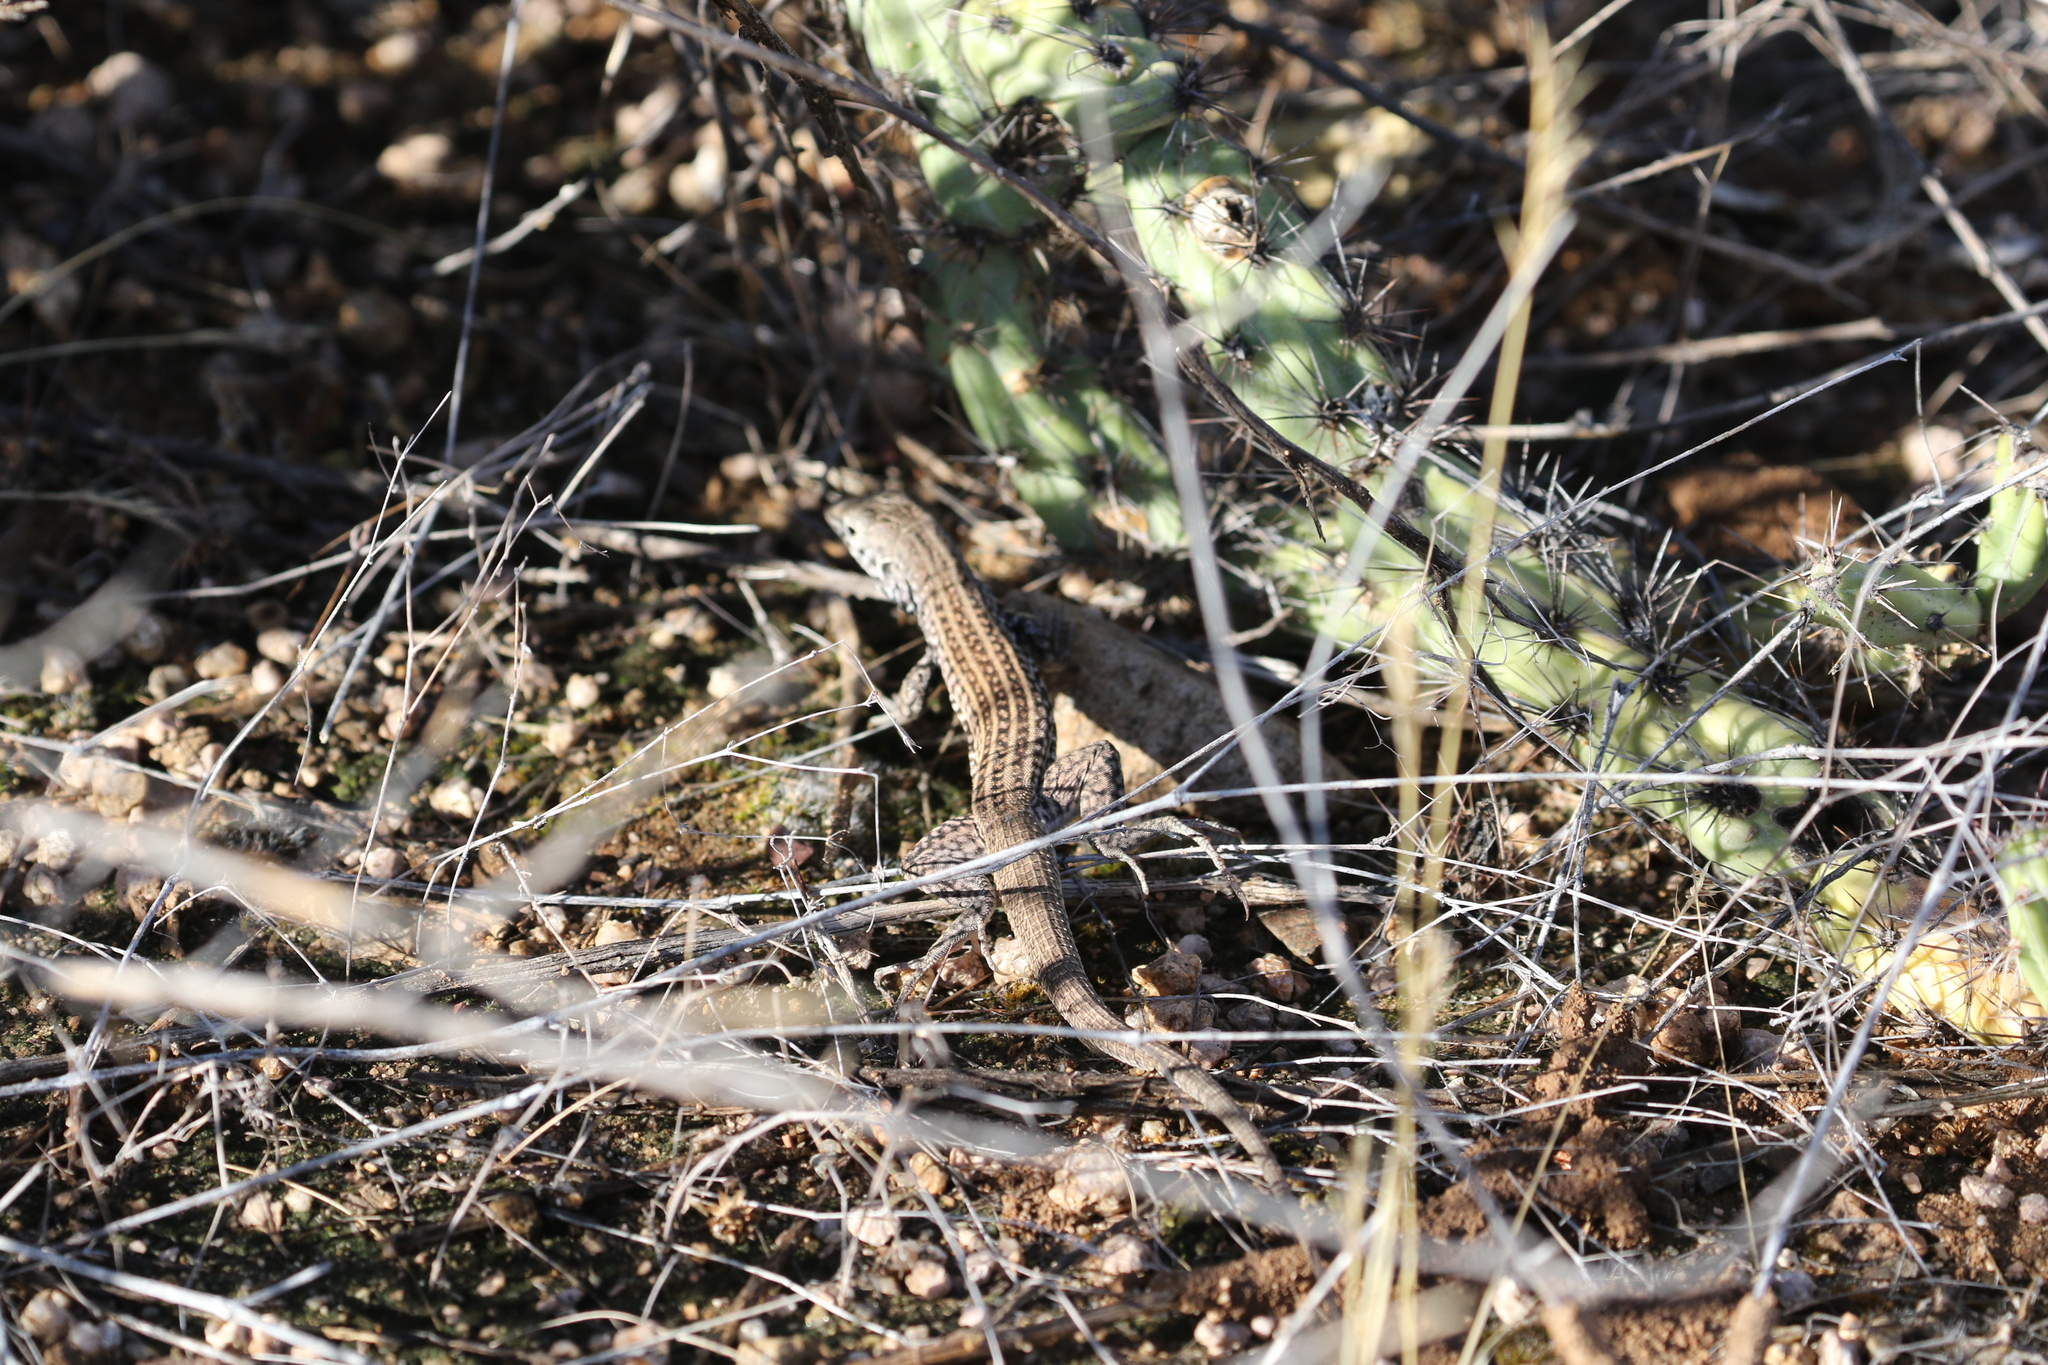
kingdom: Animalia
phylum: Chordata
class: Squamata
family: Teiidae
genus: Aspidoscelis
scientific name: Aspidoscelis tigris
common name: Tiger whiptail
